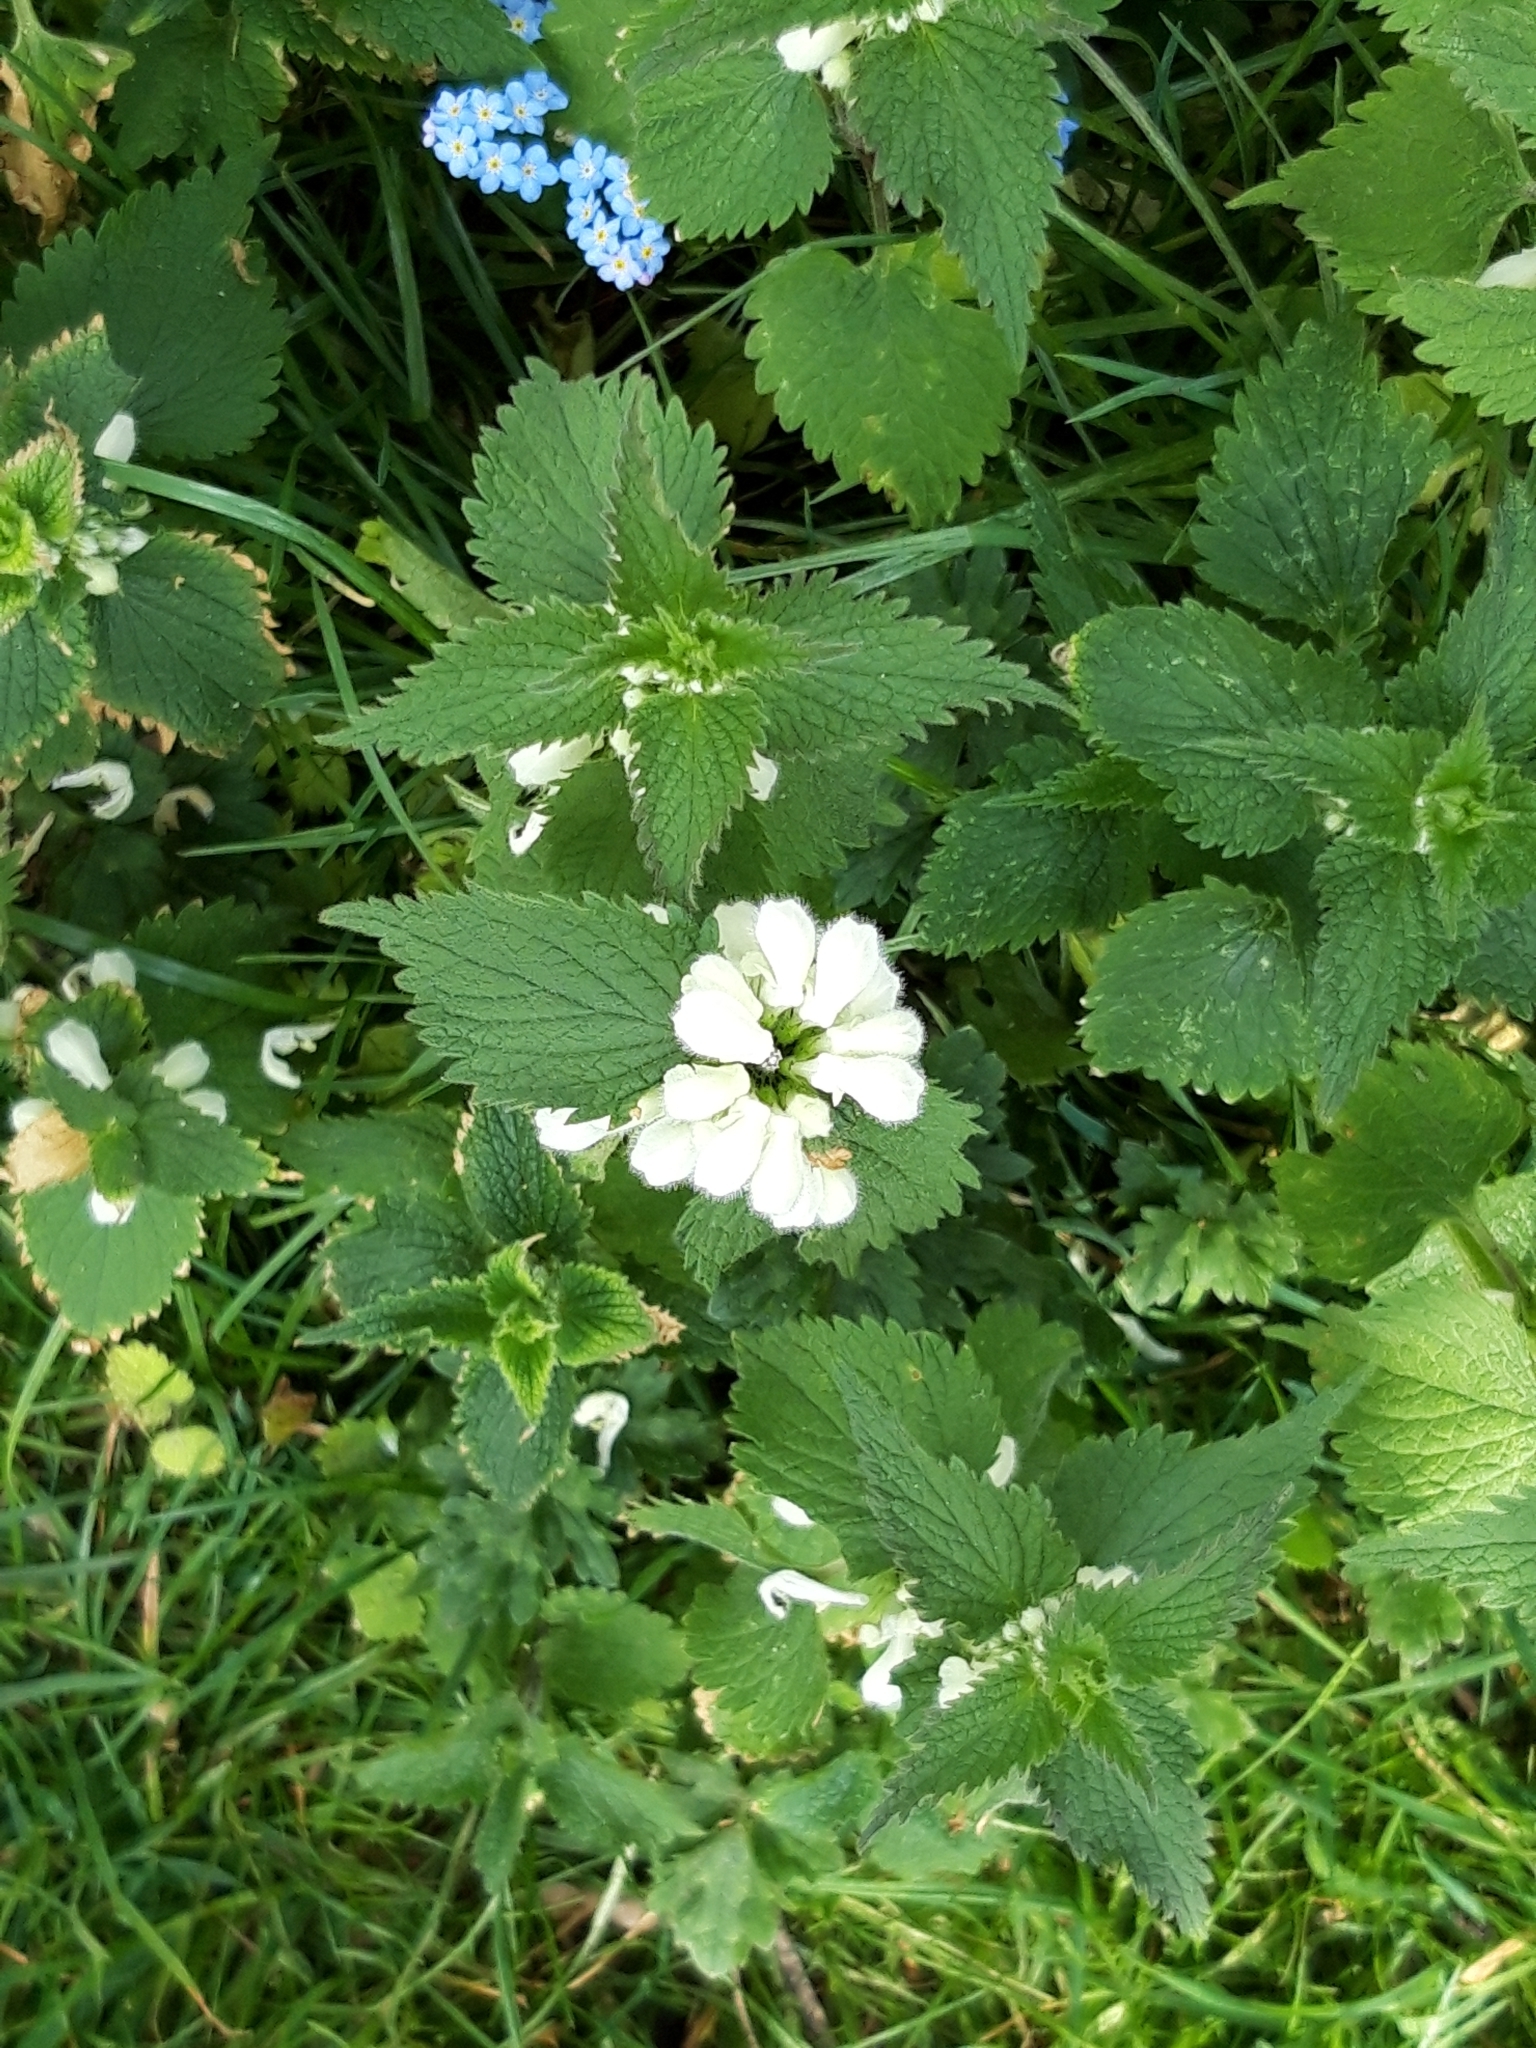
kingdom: Plantae
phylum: Tracheophyta
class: Magnoliopsida
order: Lamiales
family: Lamiaceae
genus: Lamium
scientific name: Lamium album
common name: White dead-nettle
